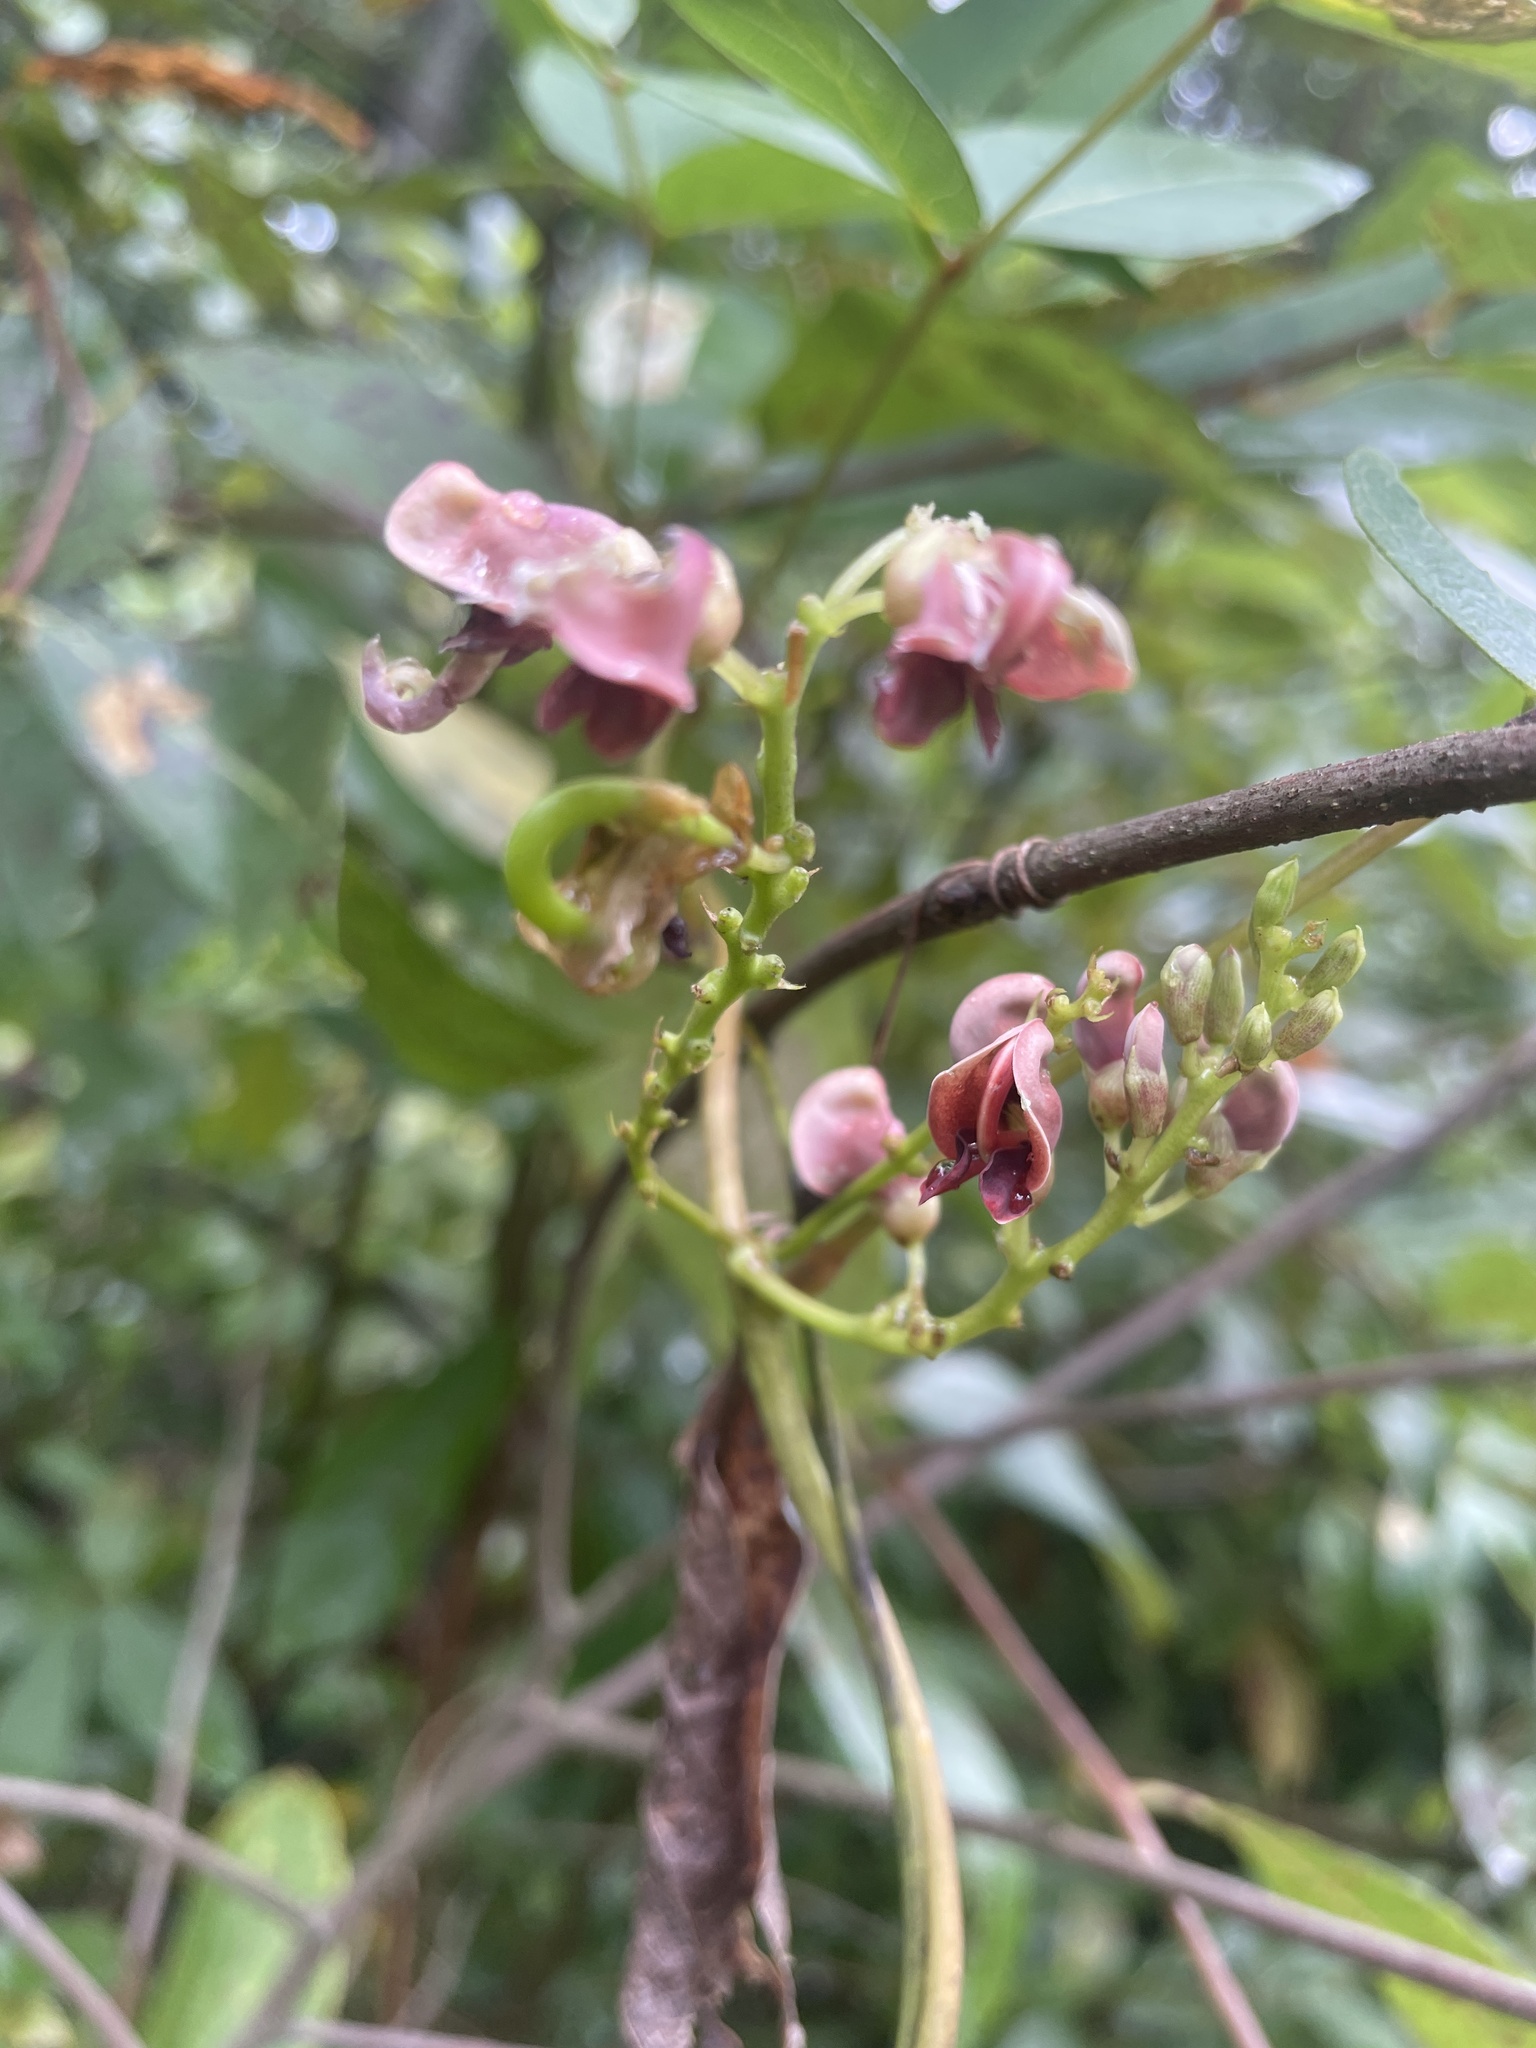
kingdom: Plantae
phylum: Tracheophyta
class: Magnoliopsida
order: Fabales
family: Fabaceae
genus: Apios
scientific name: Apios americana
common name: American potato-bean
